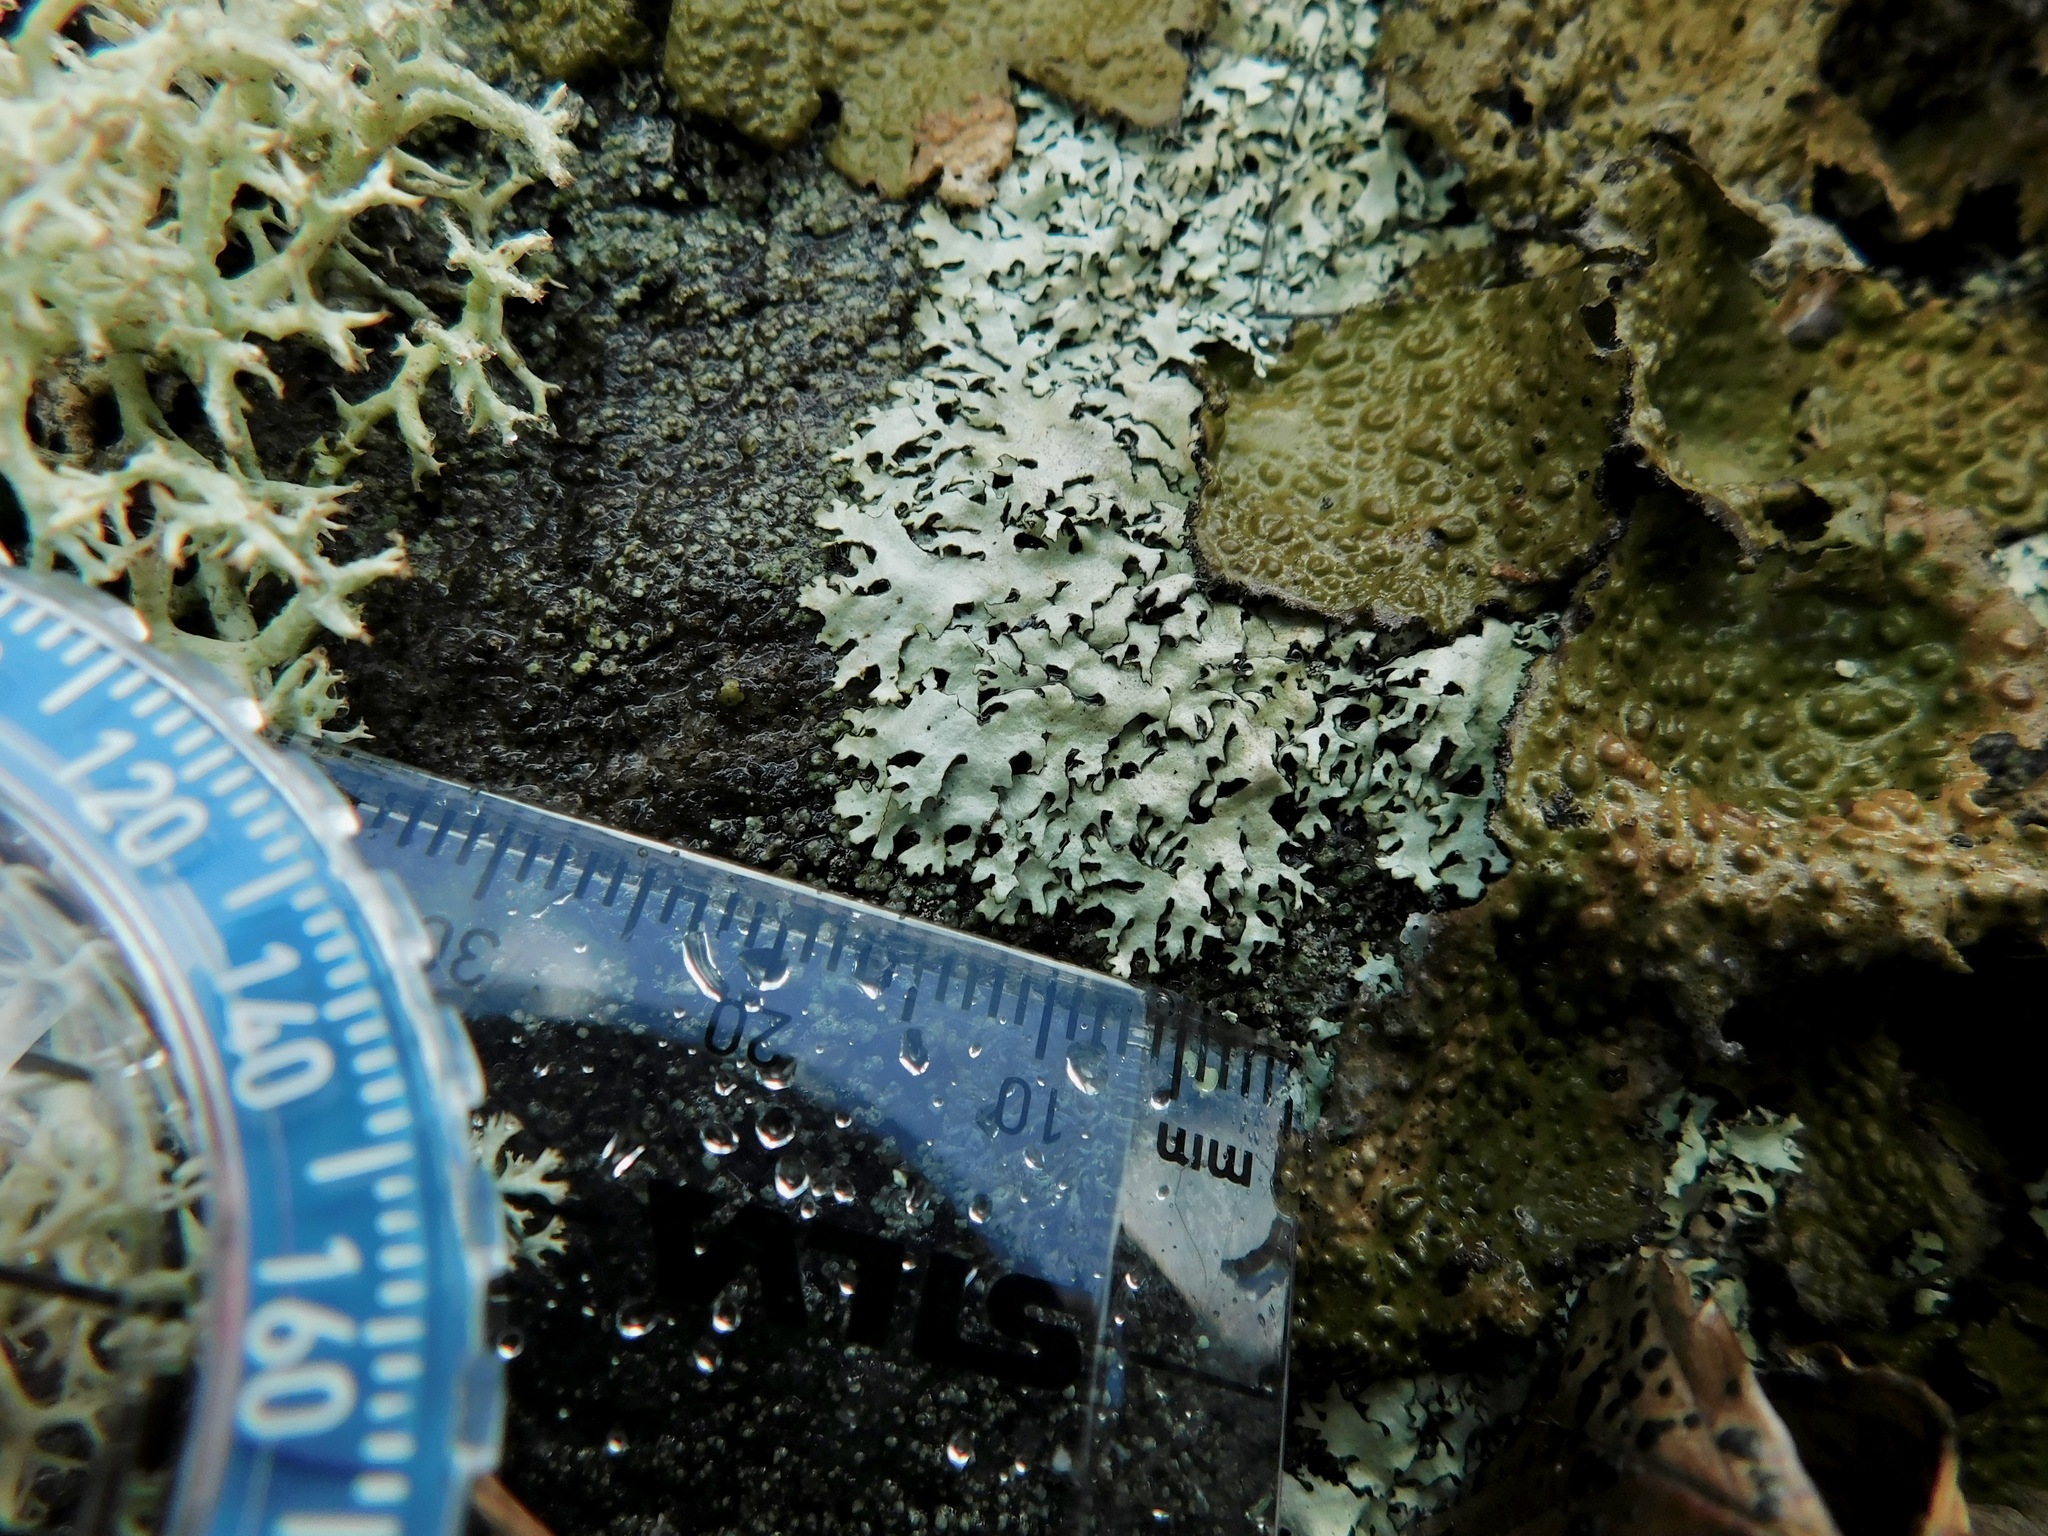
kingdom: Fungi
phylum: Ascomycota
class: Lecanoromycetes
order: Lecanorales
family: Parmeliaceae
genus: Xanthoparmelia
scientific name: Xanthoparmelia conspersa
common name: Peppered rock shield
